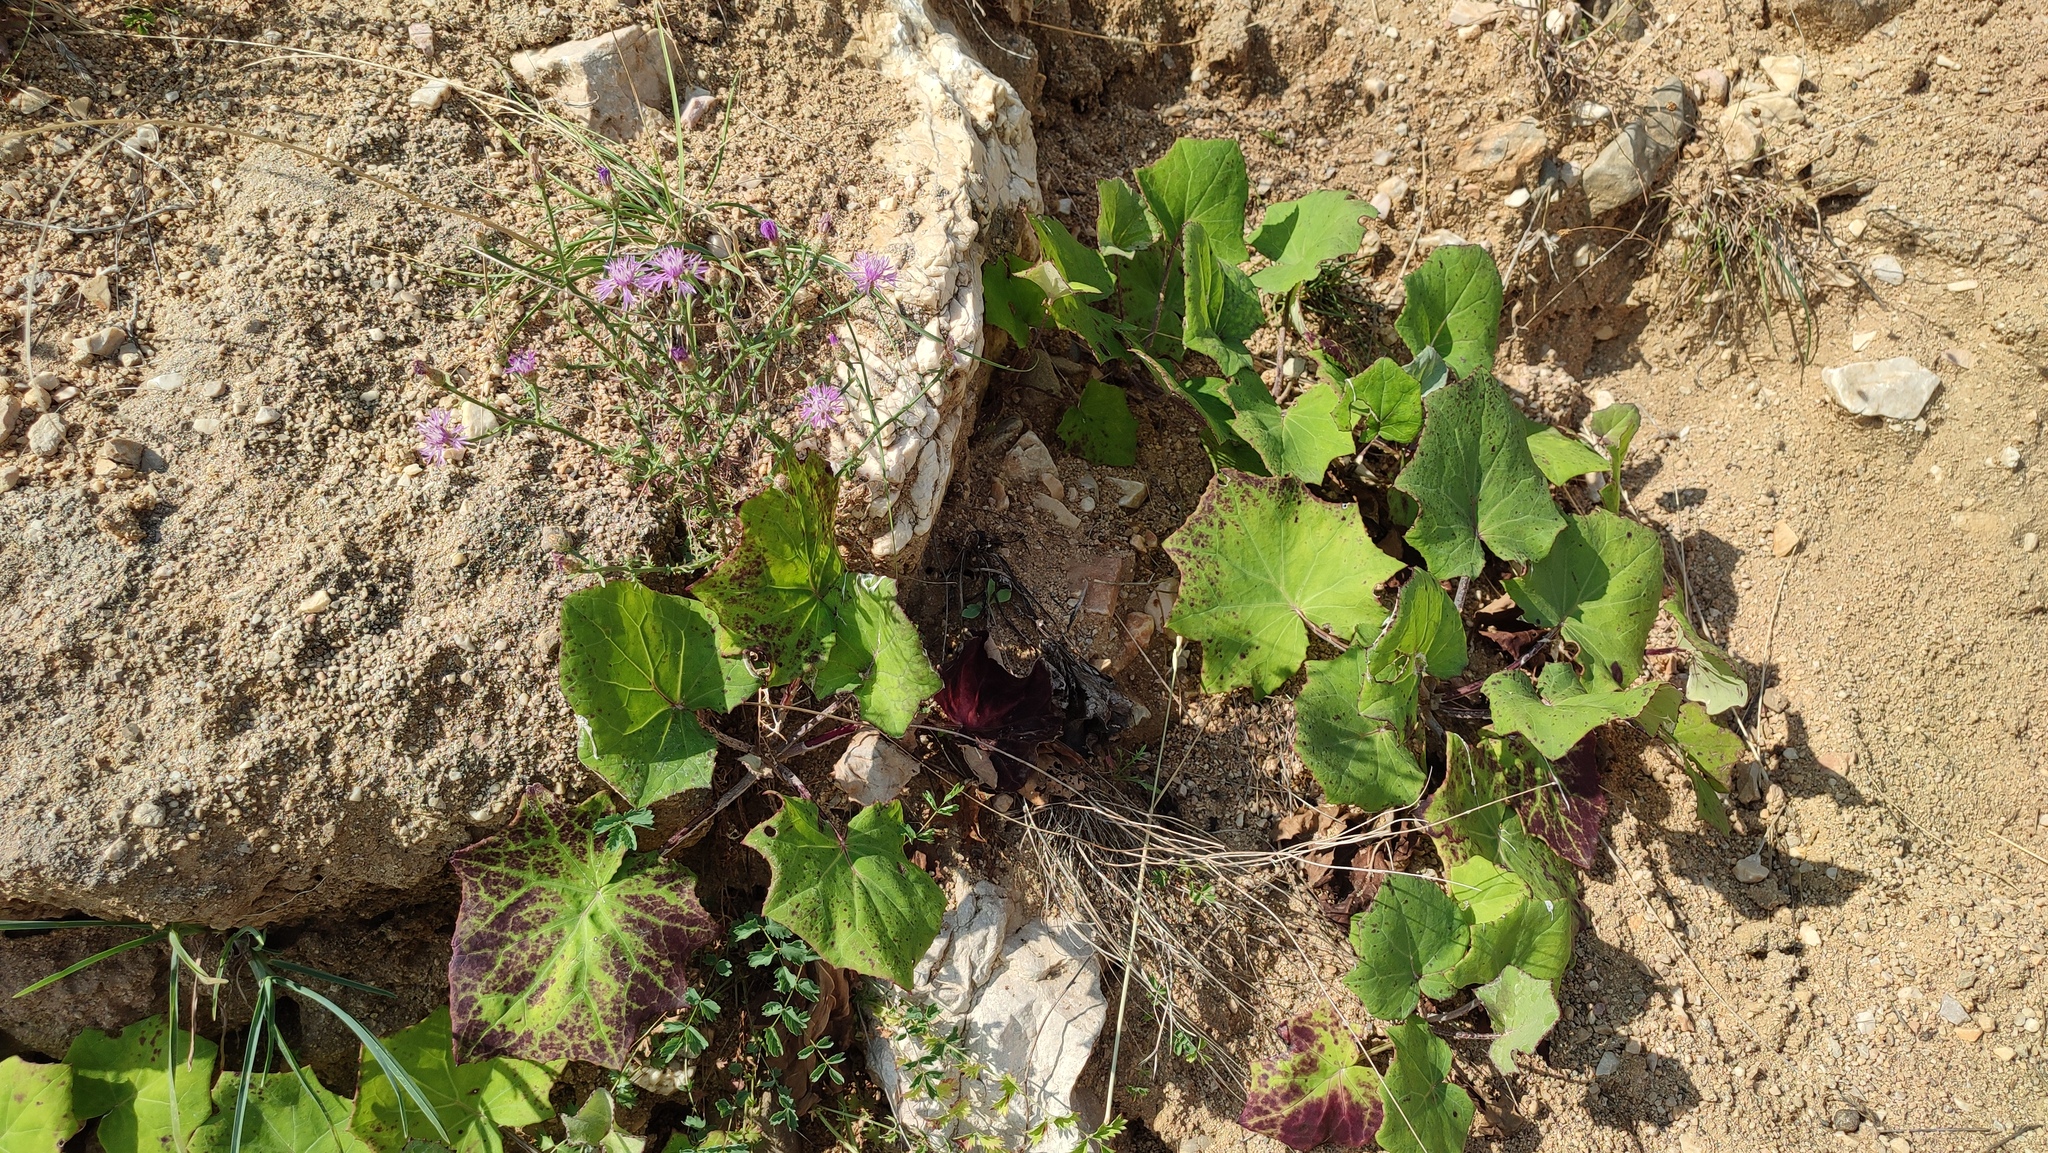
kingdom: Plantae
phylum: Tracheophyta
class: Magnoliopsida
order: Asterales
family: Asteraceae
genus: Tussilago
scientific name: Tussilago farfara
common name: Coltsfoot
